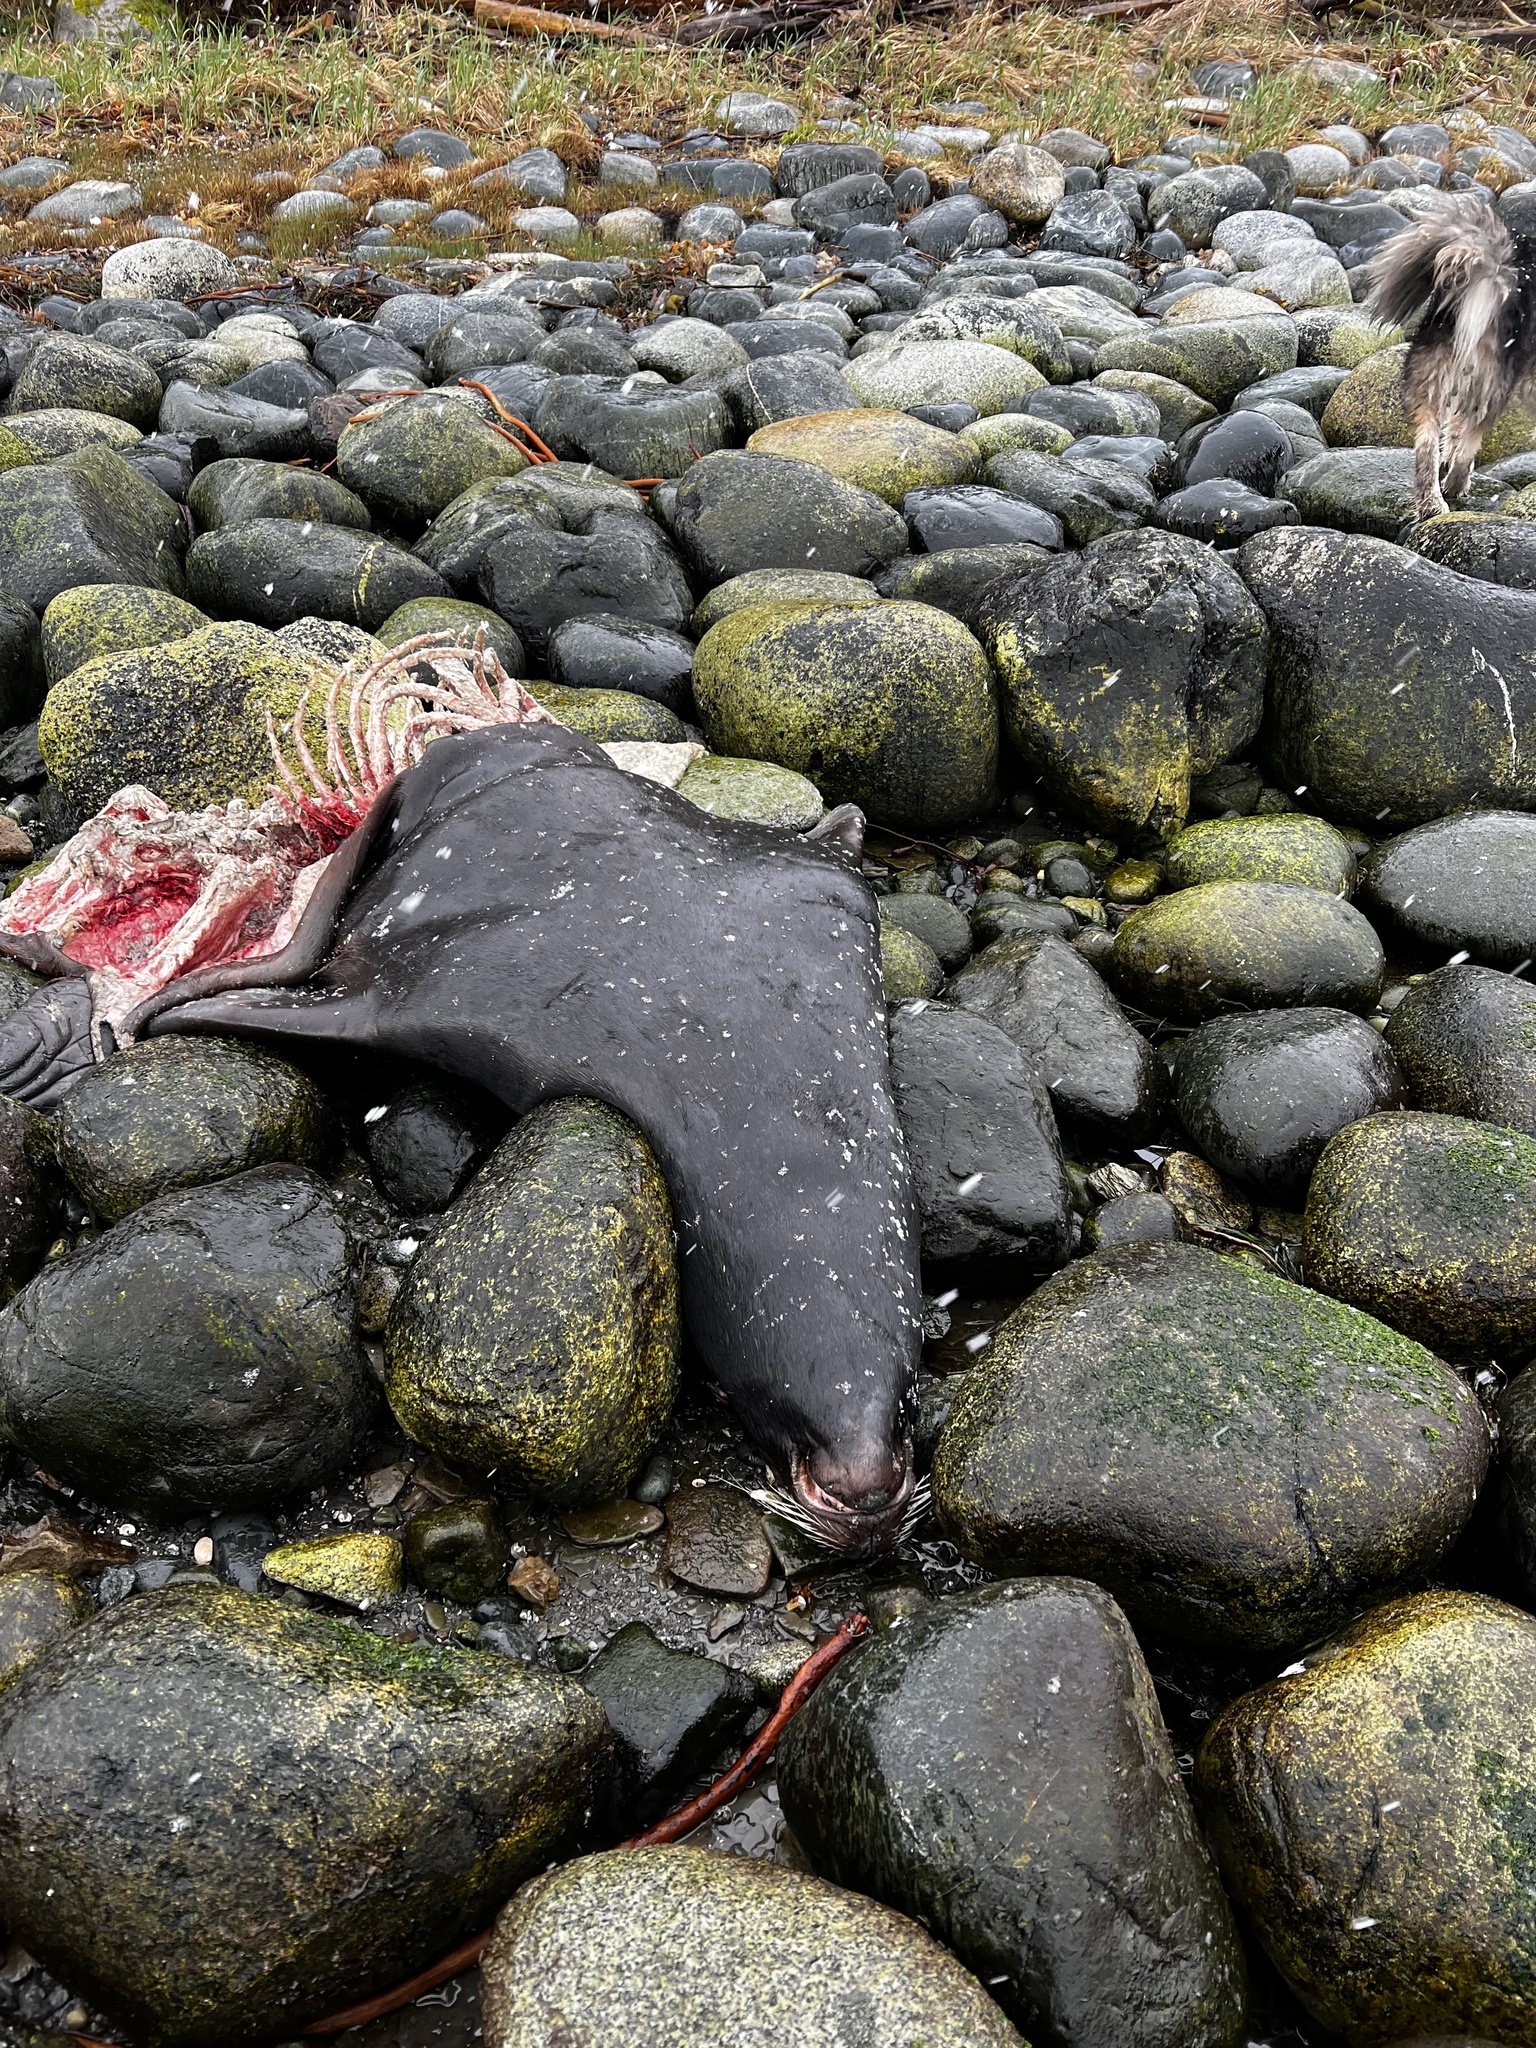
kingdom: Animalia
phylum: Chordata
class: Mammalia
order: Carnivora
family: Otariidae
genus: Zalophus
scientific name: Zalophus californianus
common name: California sea lion
